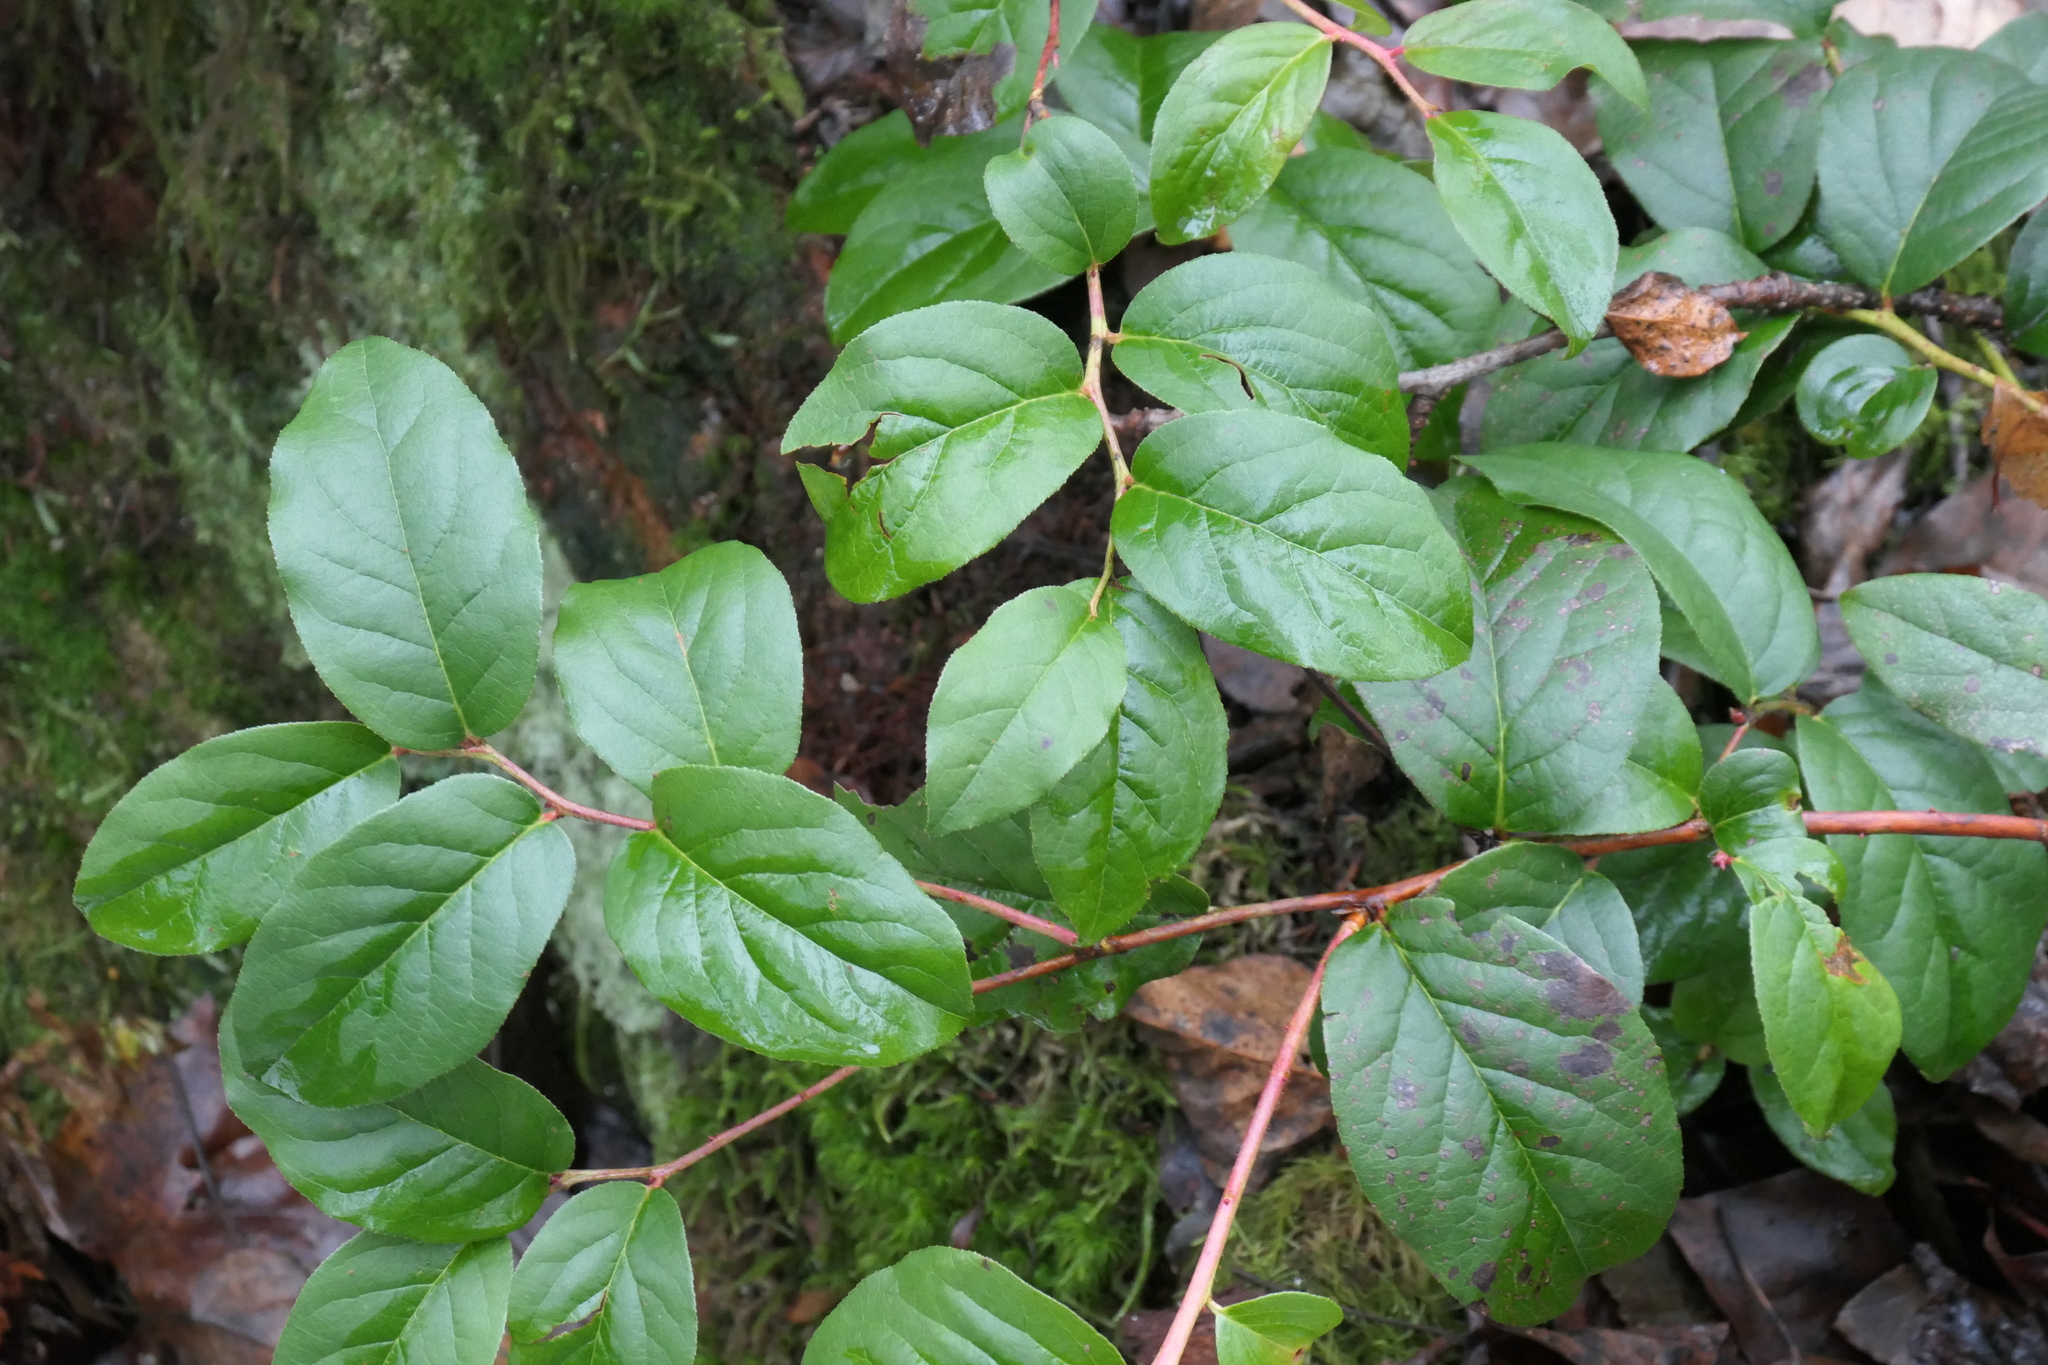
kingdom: Plantae
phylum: Tracheophyta
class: Magnoliopsida
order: Ericales
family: Ericaceae
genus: Gaultheria
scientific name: Gaultheria shallon
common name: Shallon
